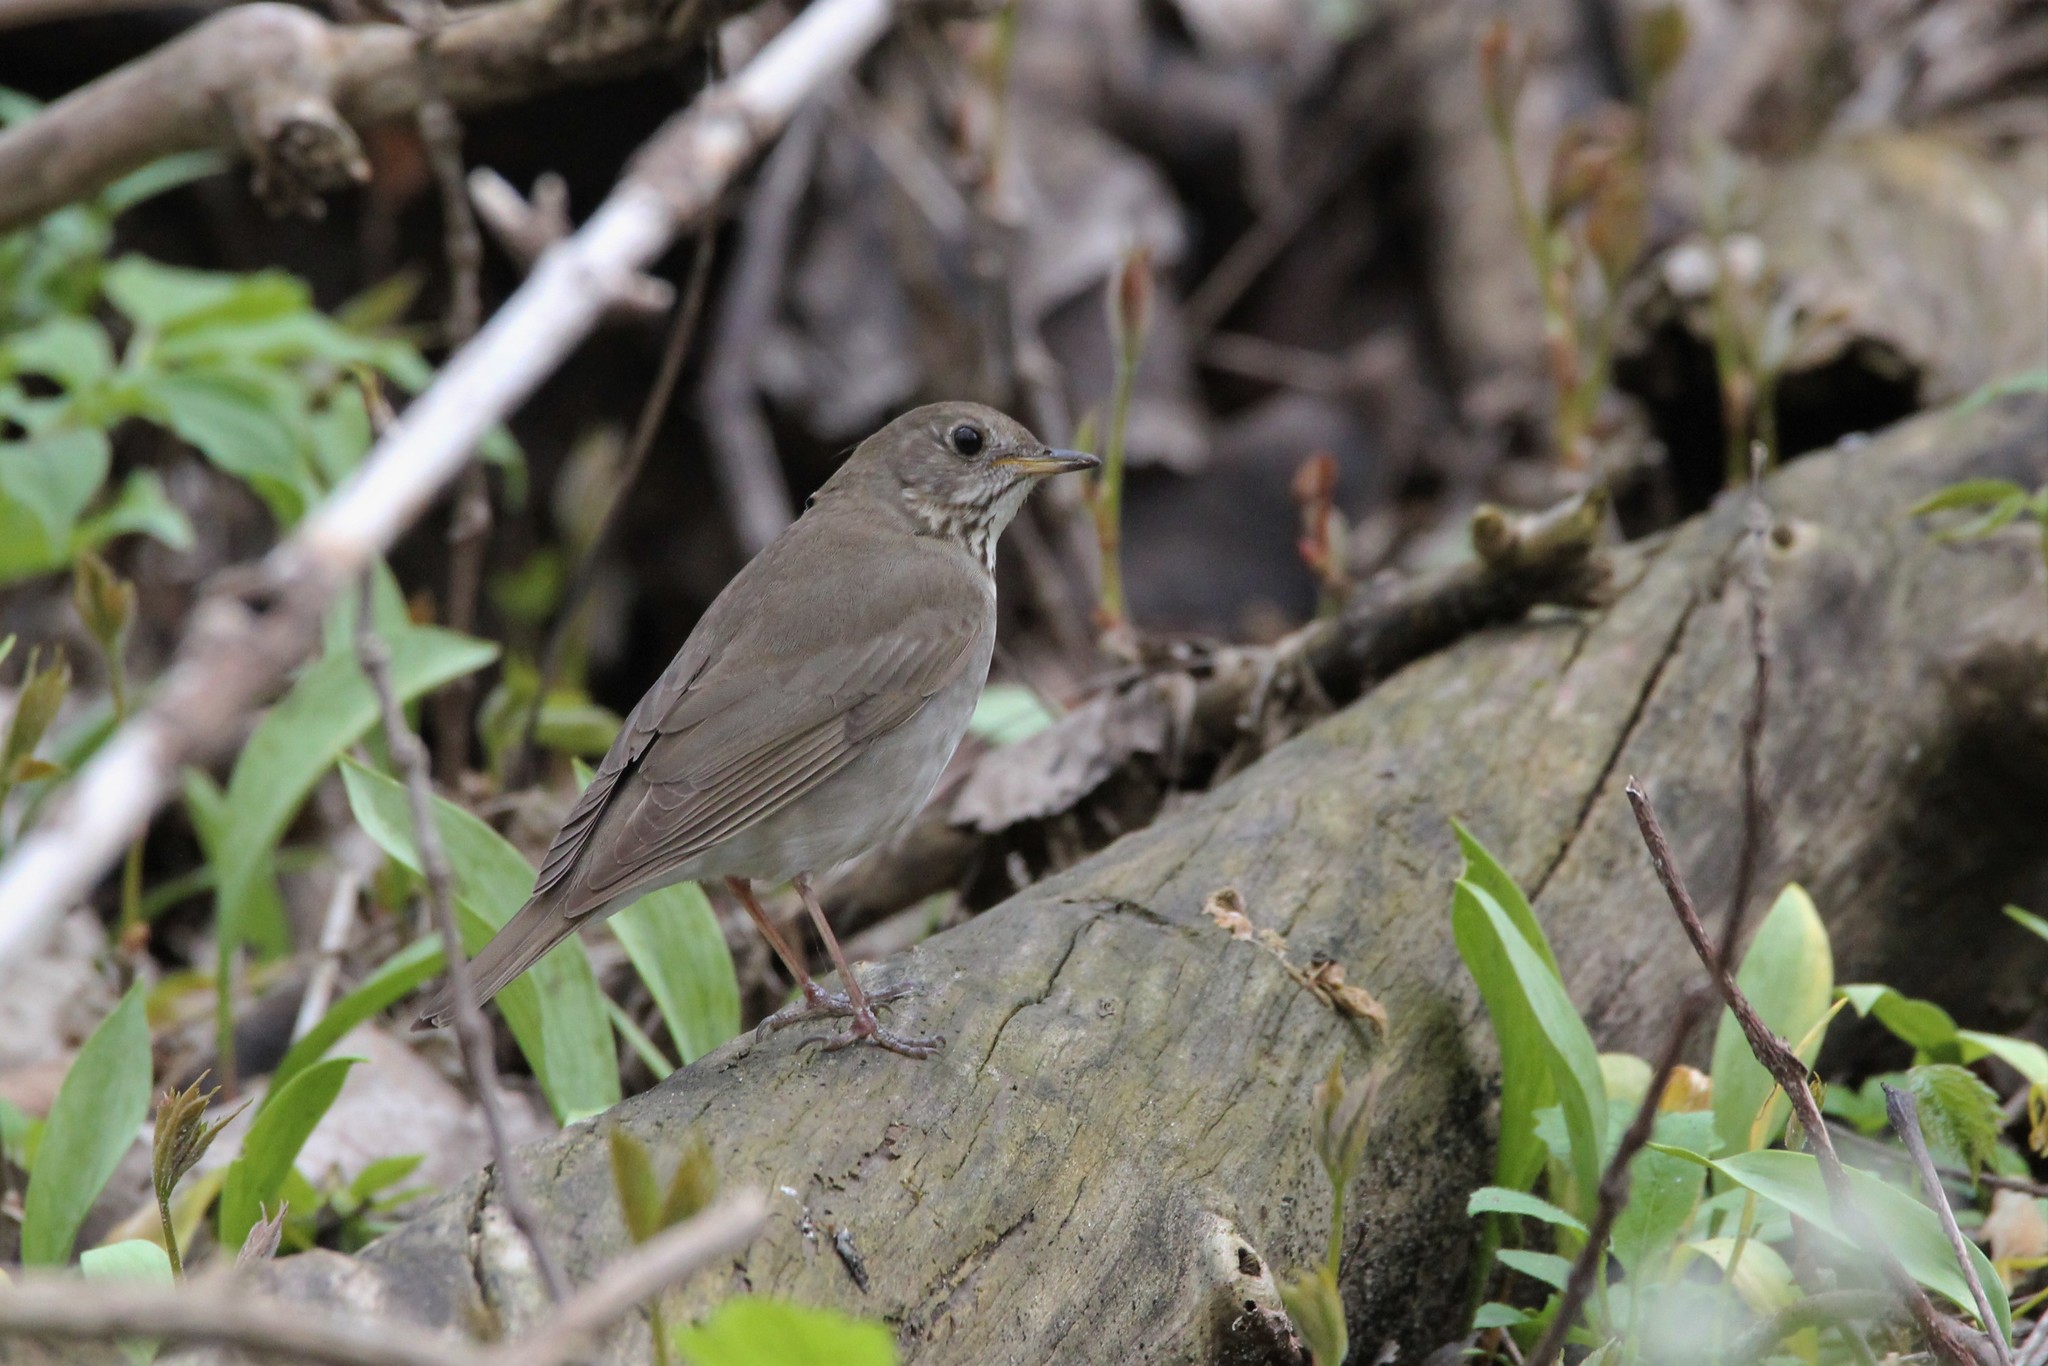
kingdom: Animalia
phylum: Chordata
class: Aves
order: Passeriformes
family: Turdidae
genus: Catharus
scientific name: Catharus minimus
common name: Grey-cheeked thrush
